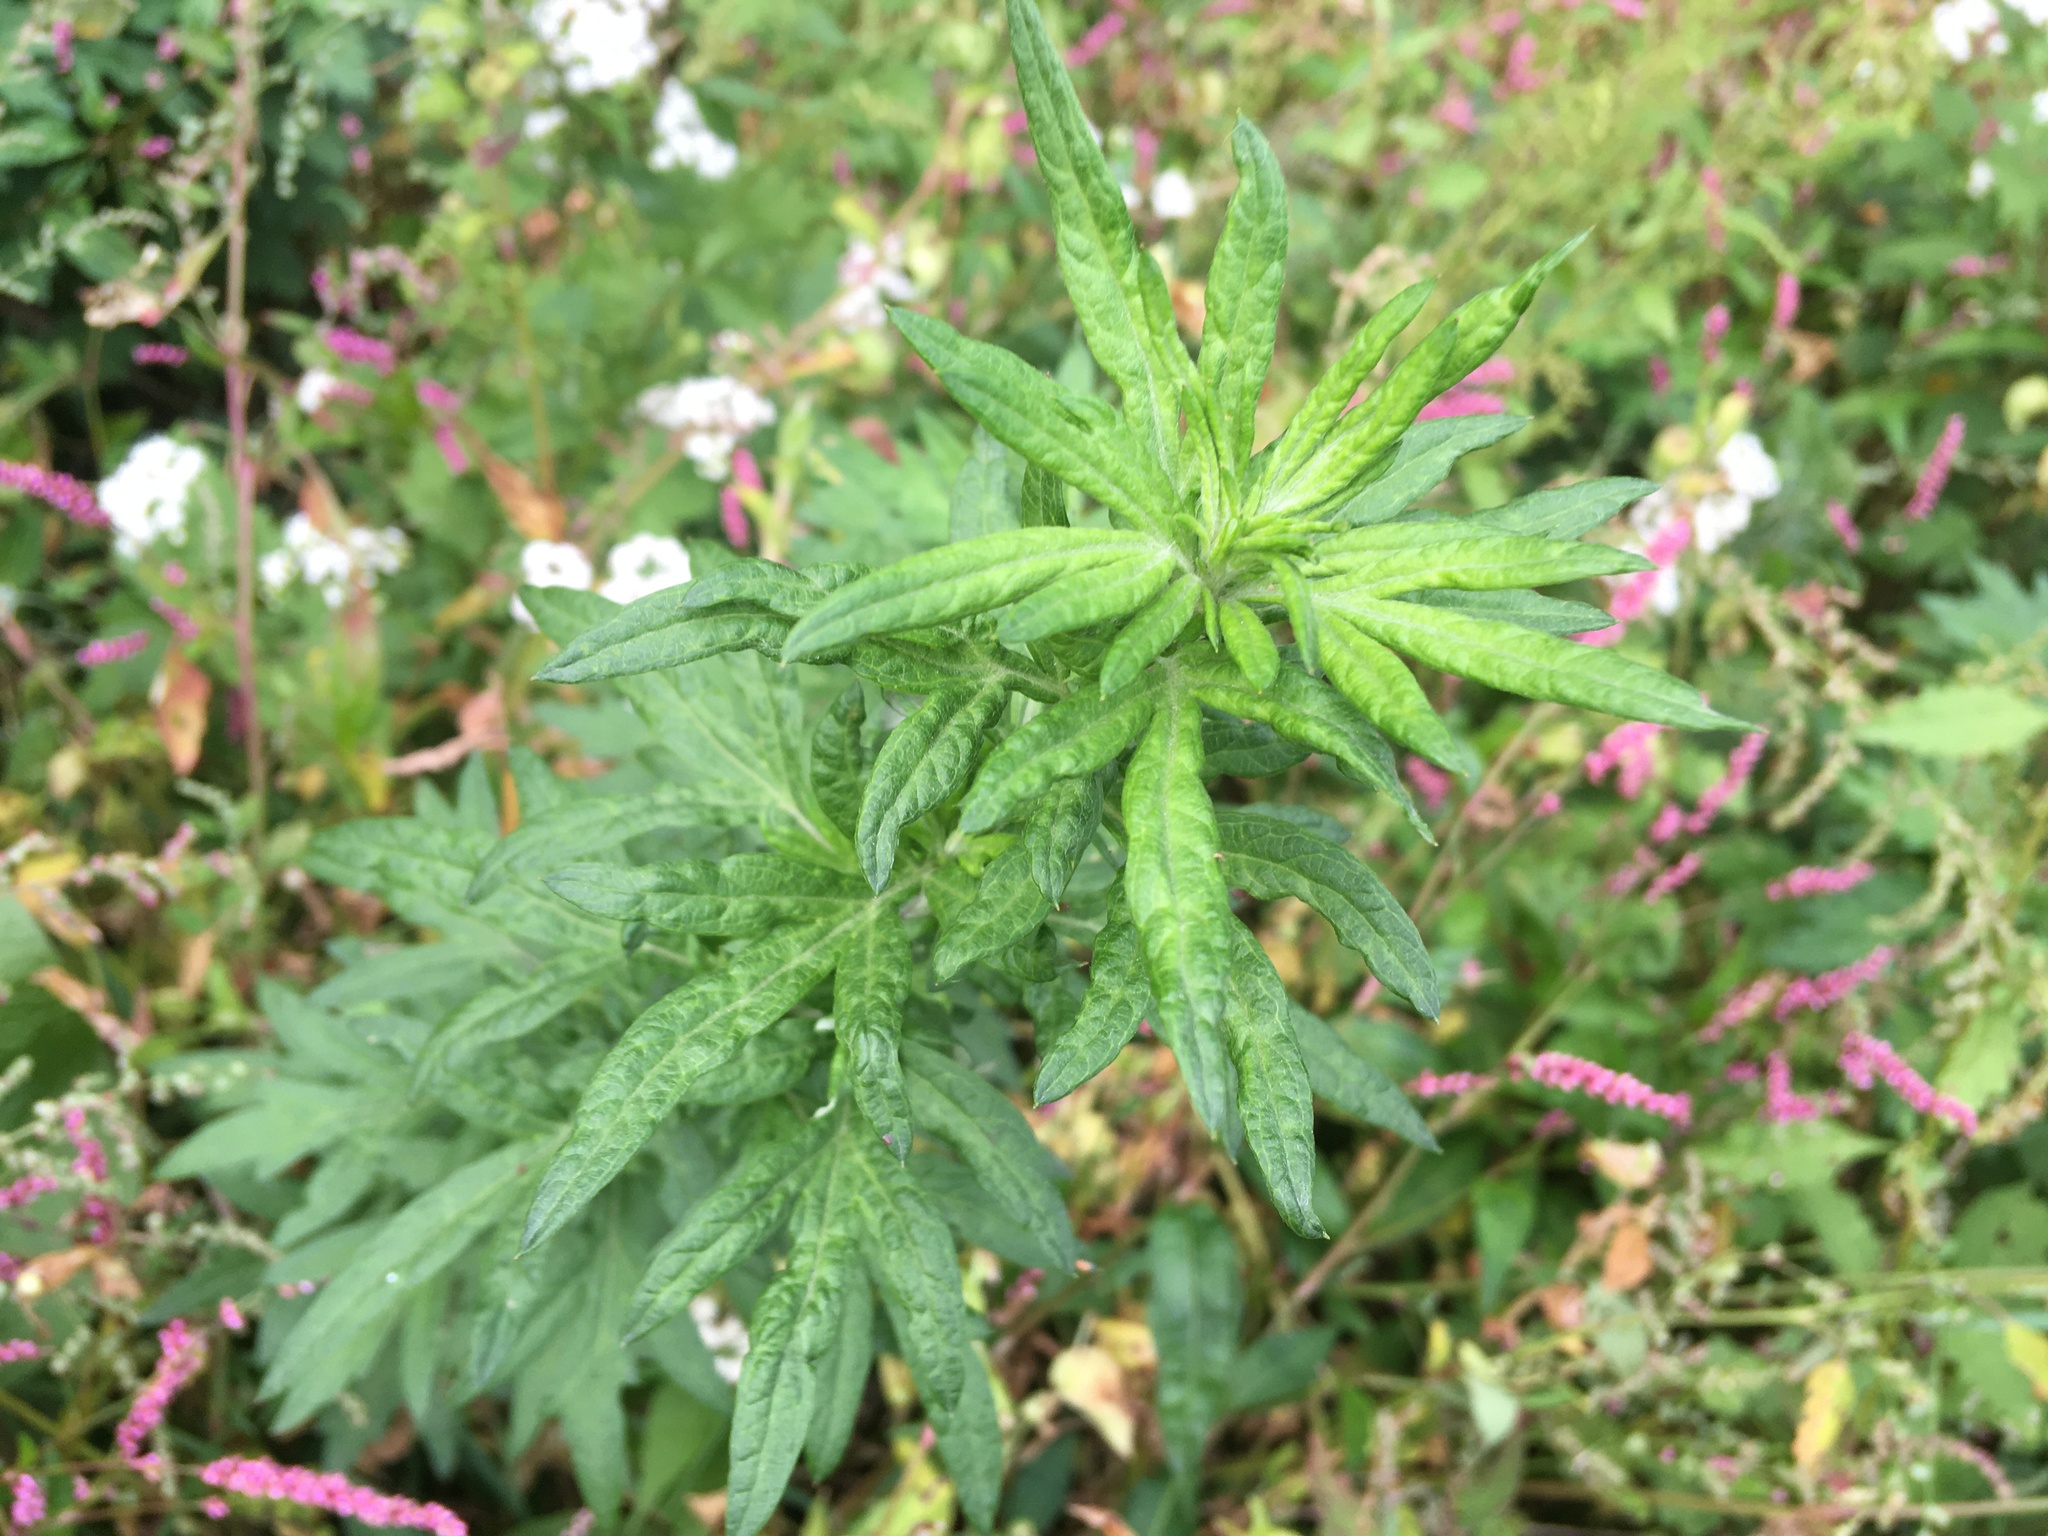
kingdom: Plantae
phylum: Tracheophyta
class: Magnoliopsida
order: Asterales
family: Asteraceae
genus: Artemisia
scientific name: Artemisia vulgaris
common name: Mugwort
